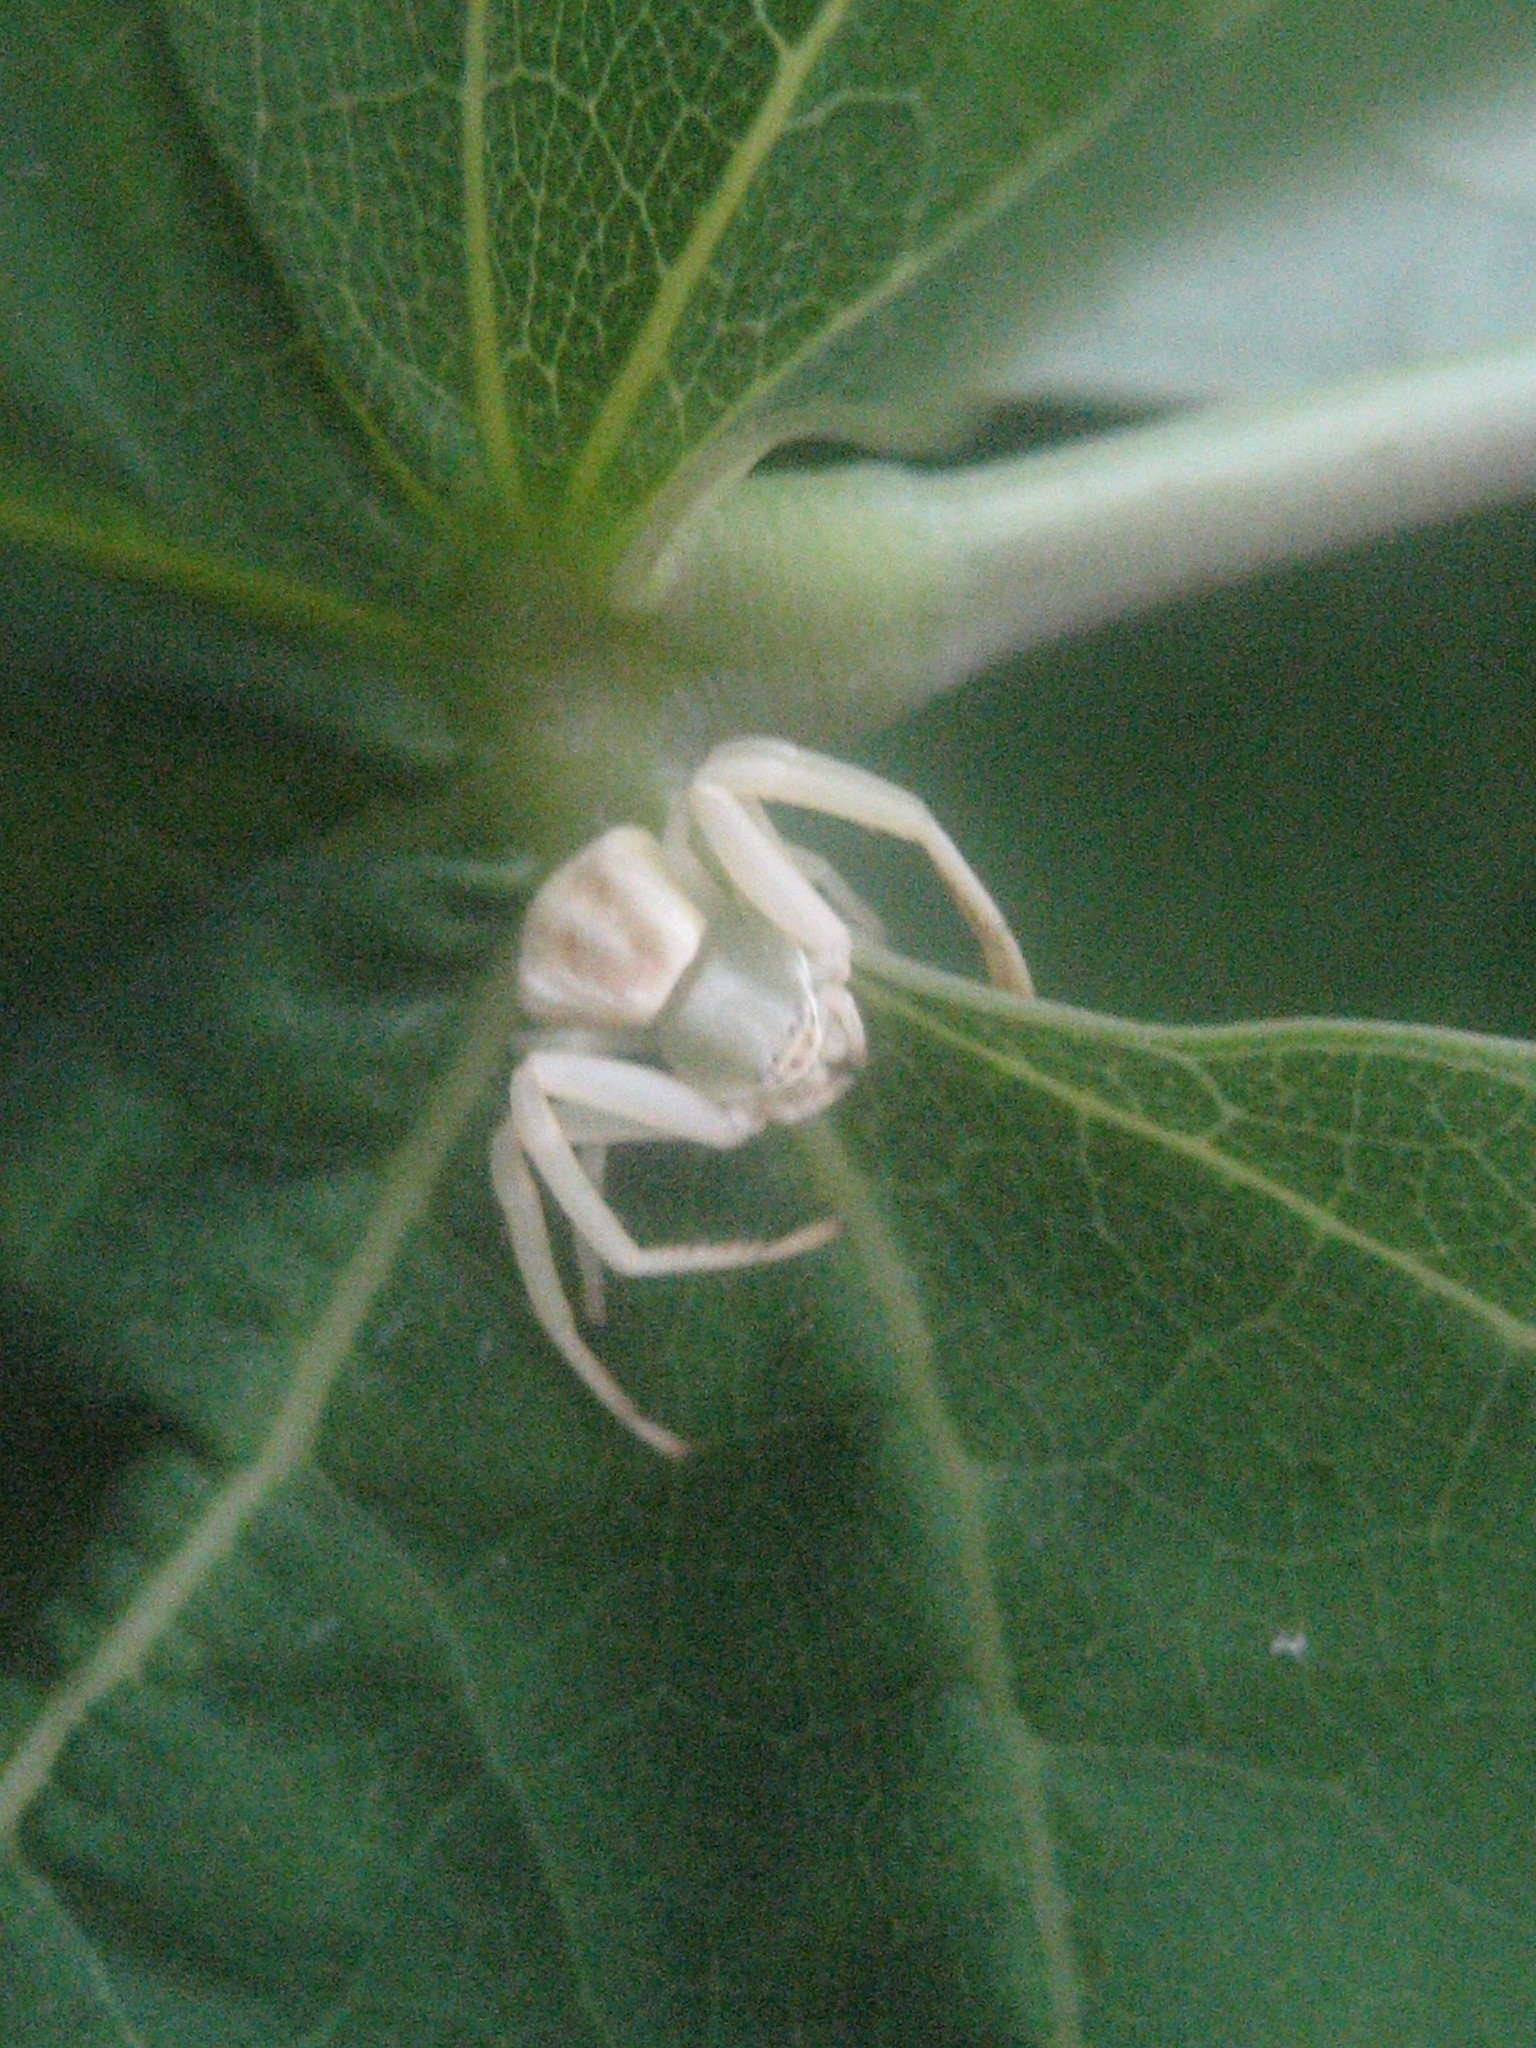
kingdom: Animalia
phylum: Arthropoda
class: Arachnida
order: Araneae
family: Thomisidae
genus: Misumenoides
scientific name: Misumenoides formosipes
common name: White-banded crab spider
